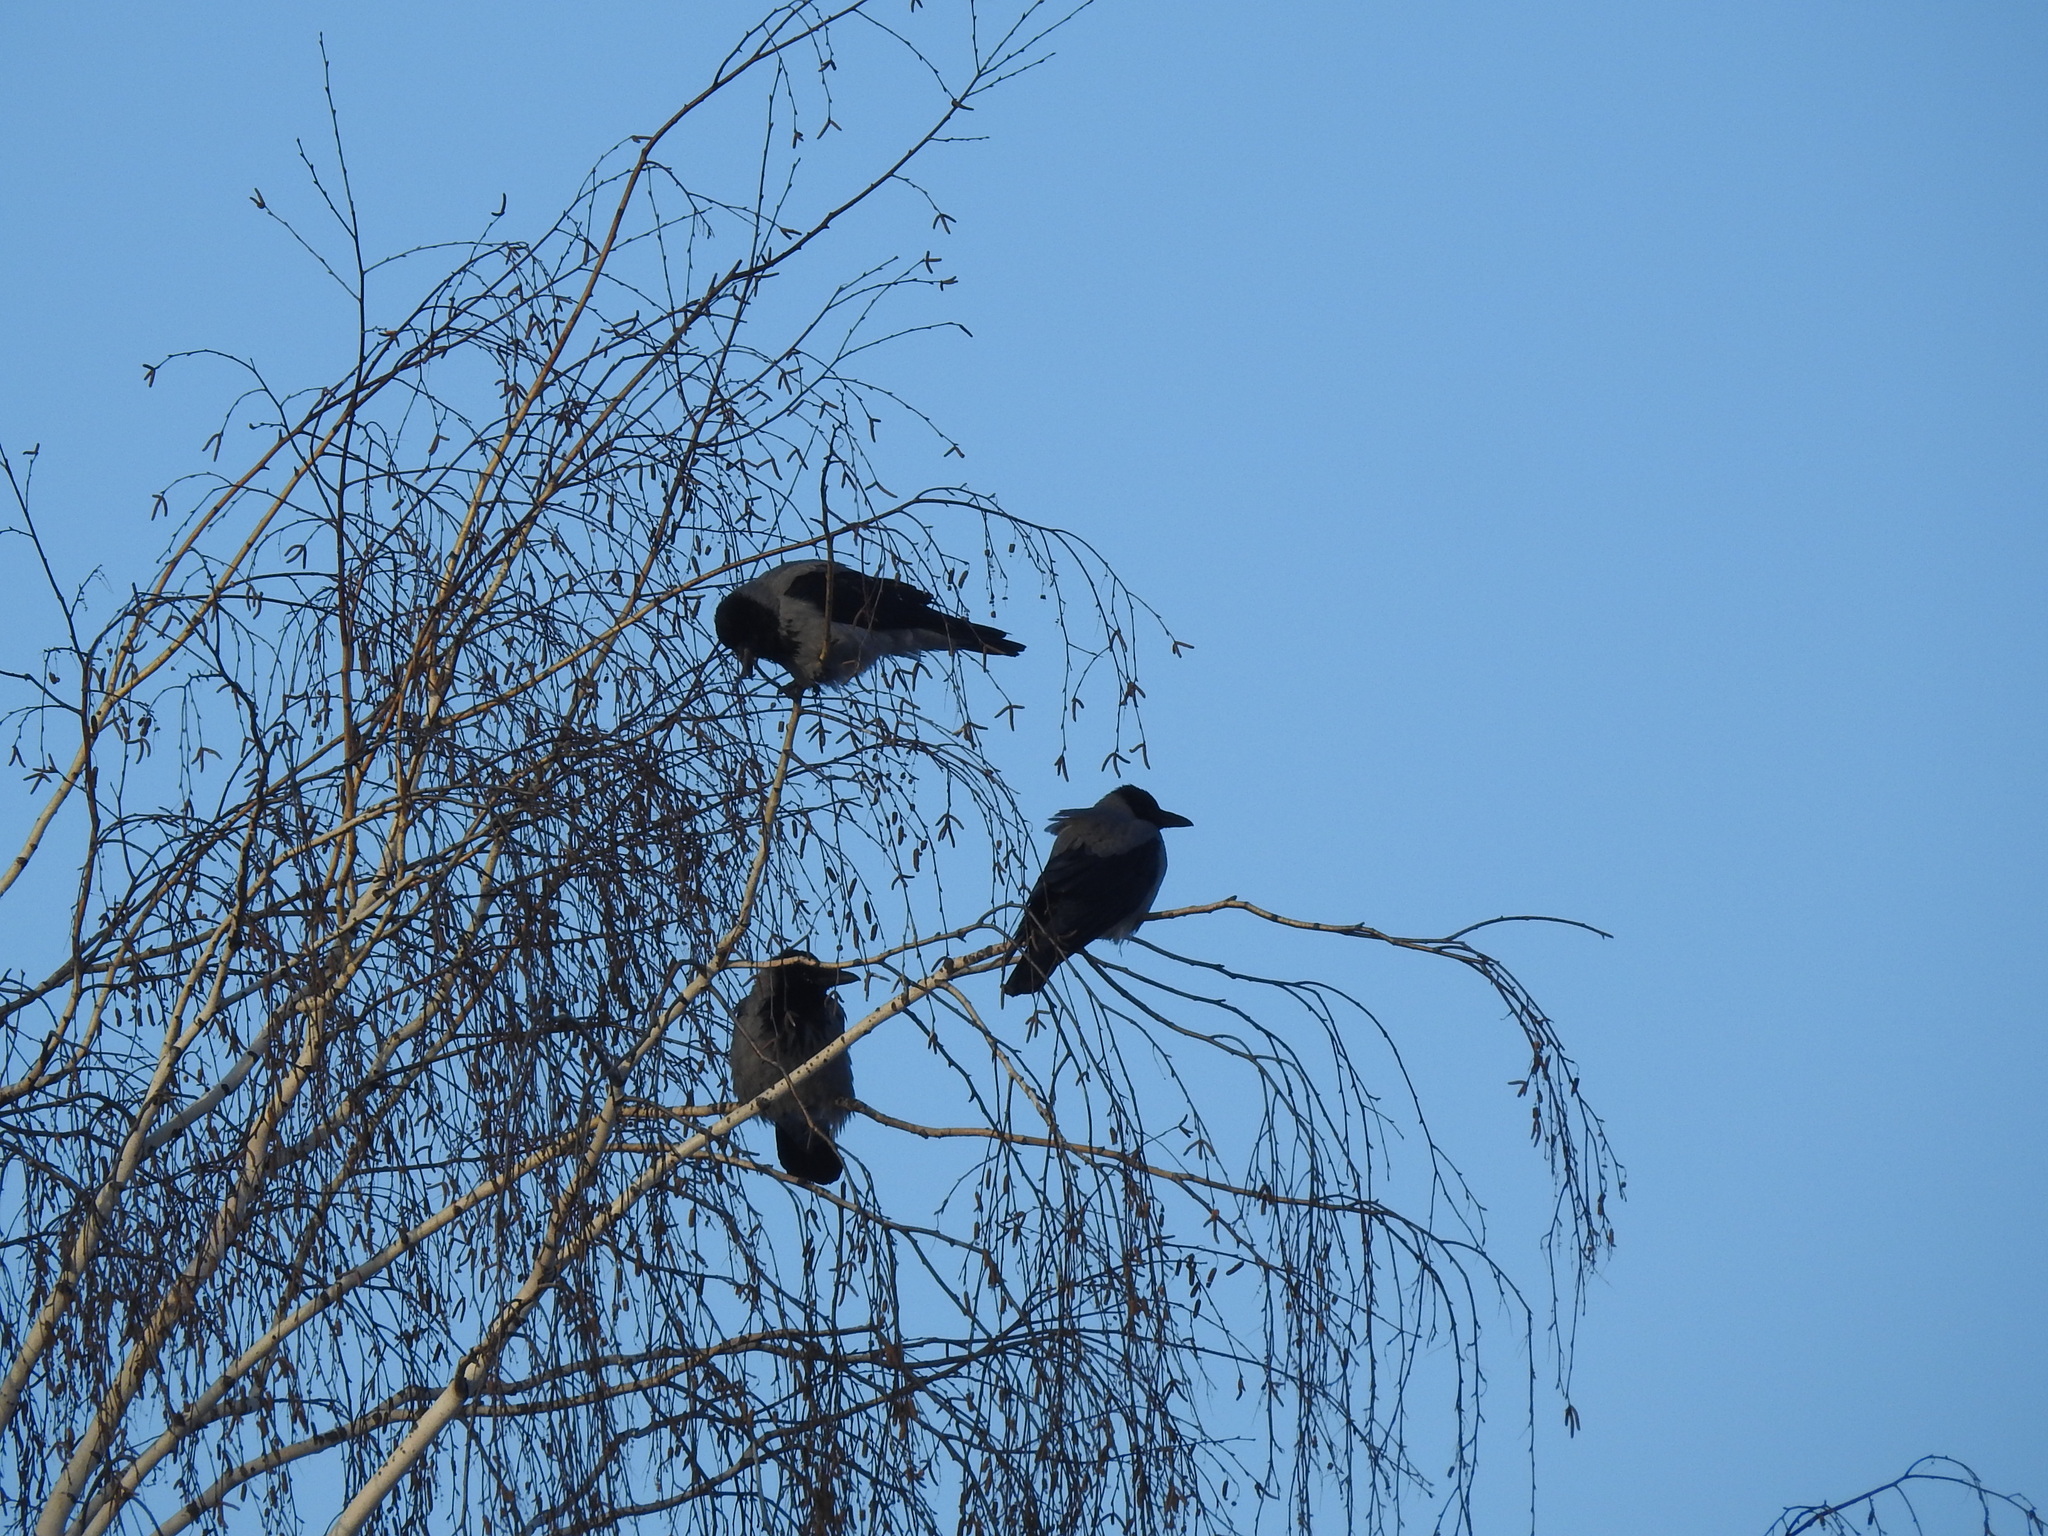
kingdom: Animalia
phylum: Chordata
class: Aves
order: Passeriformes
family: Corvidae
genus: Corvus
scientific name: Corvus cornix
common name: Hooded crow
